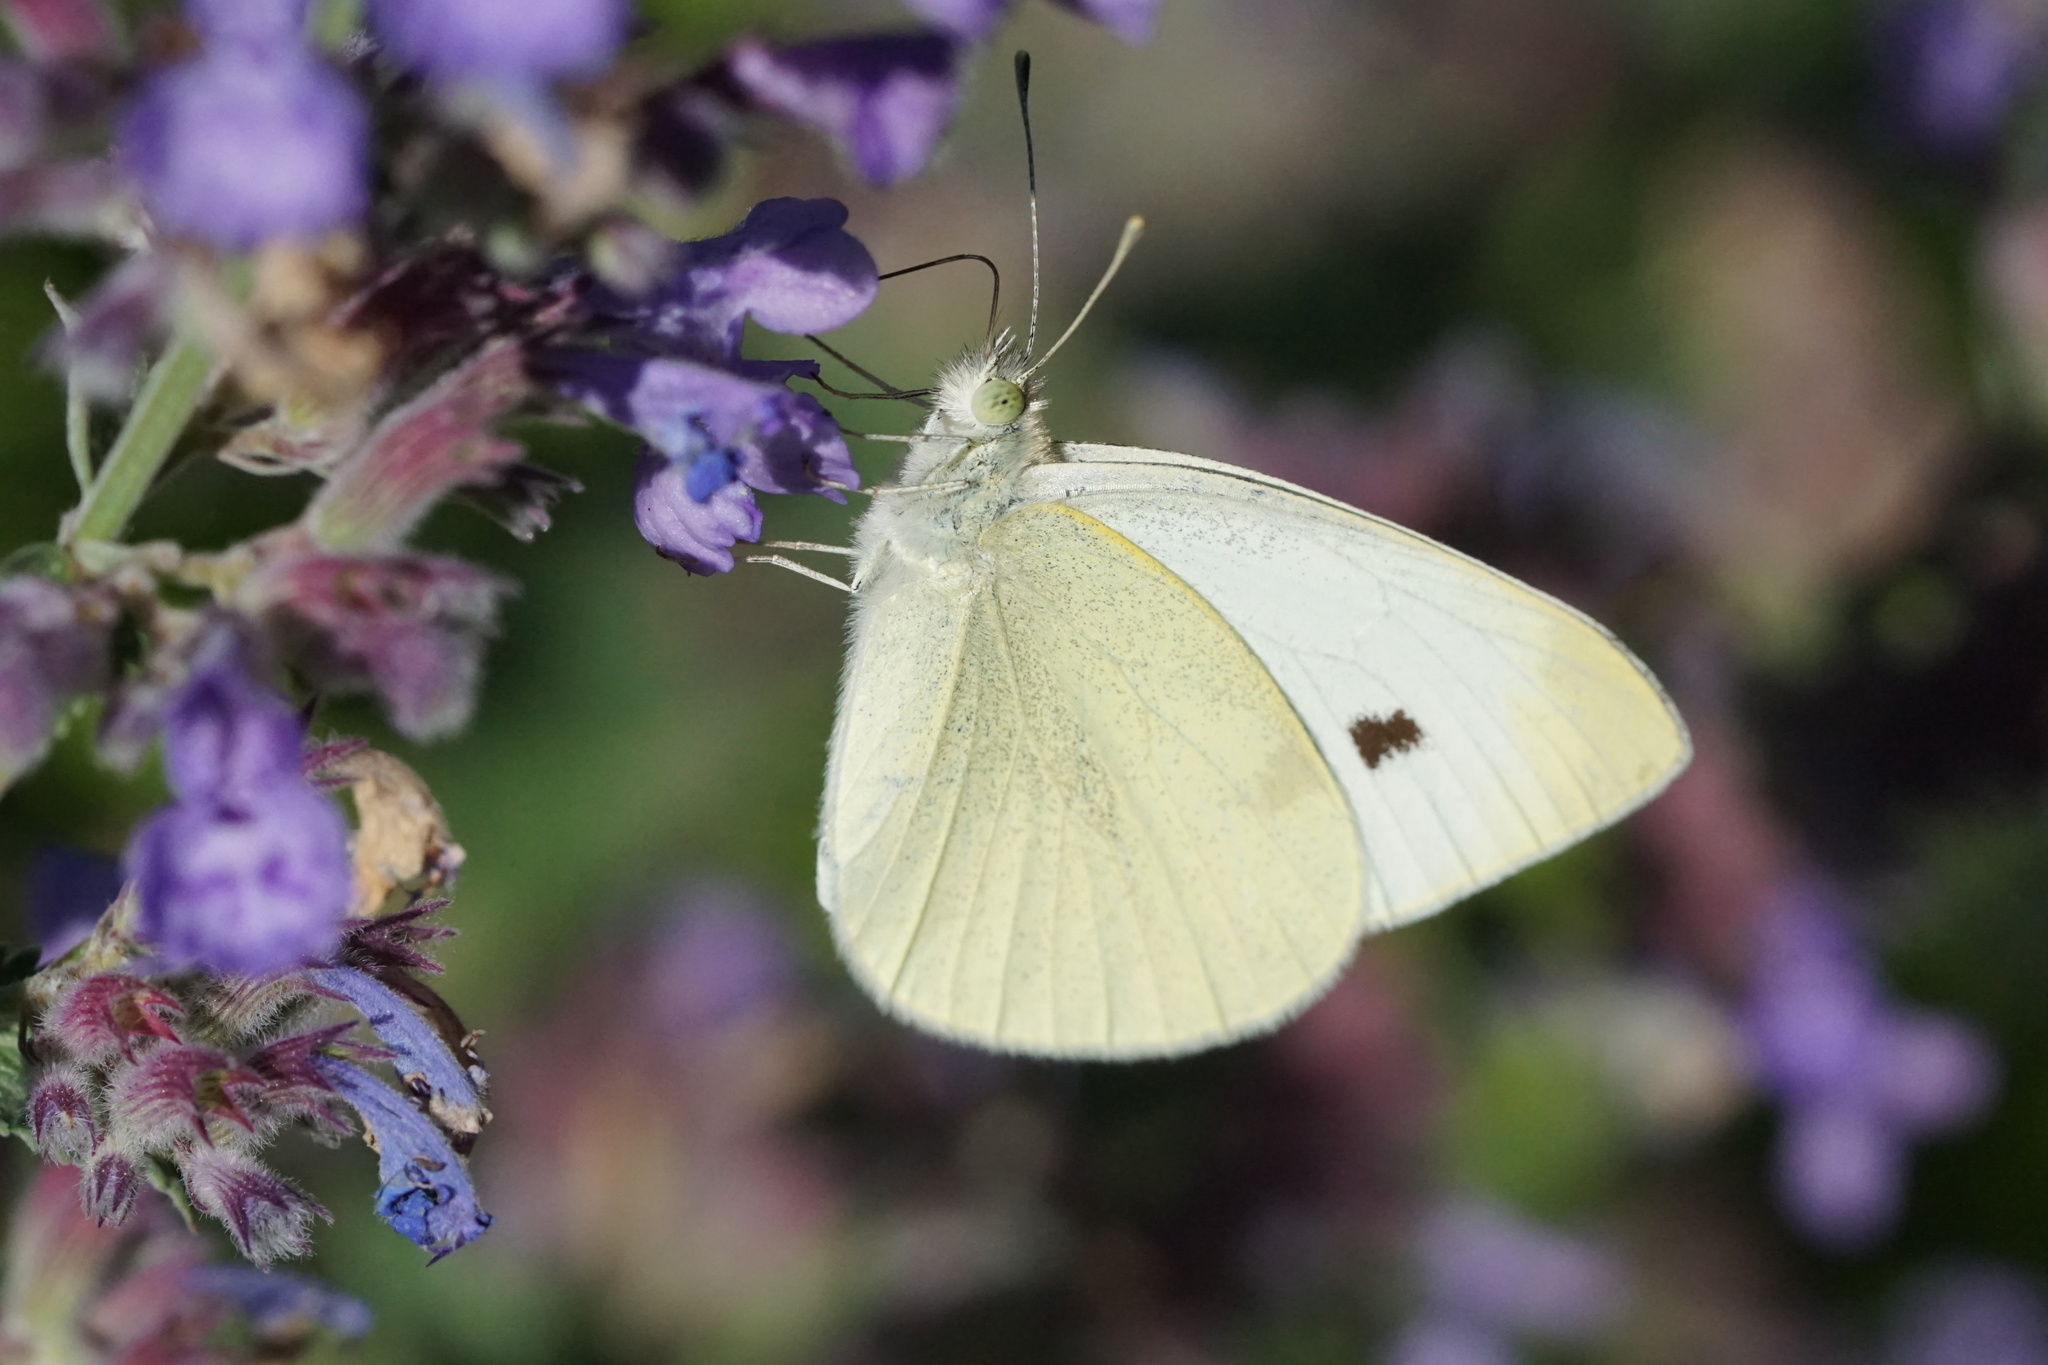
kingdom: Animalia
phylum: Arthropoda
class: Insecta
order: Lepidoptera
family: Pieridae
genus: Pieris
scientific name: Pieris rapae
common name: Small white
